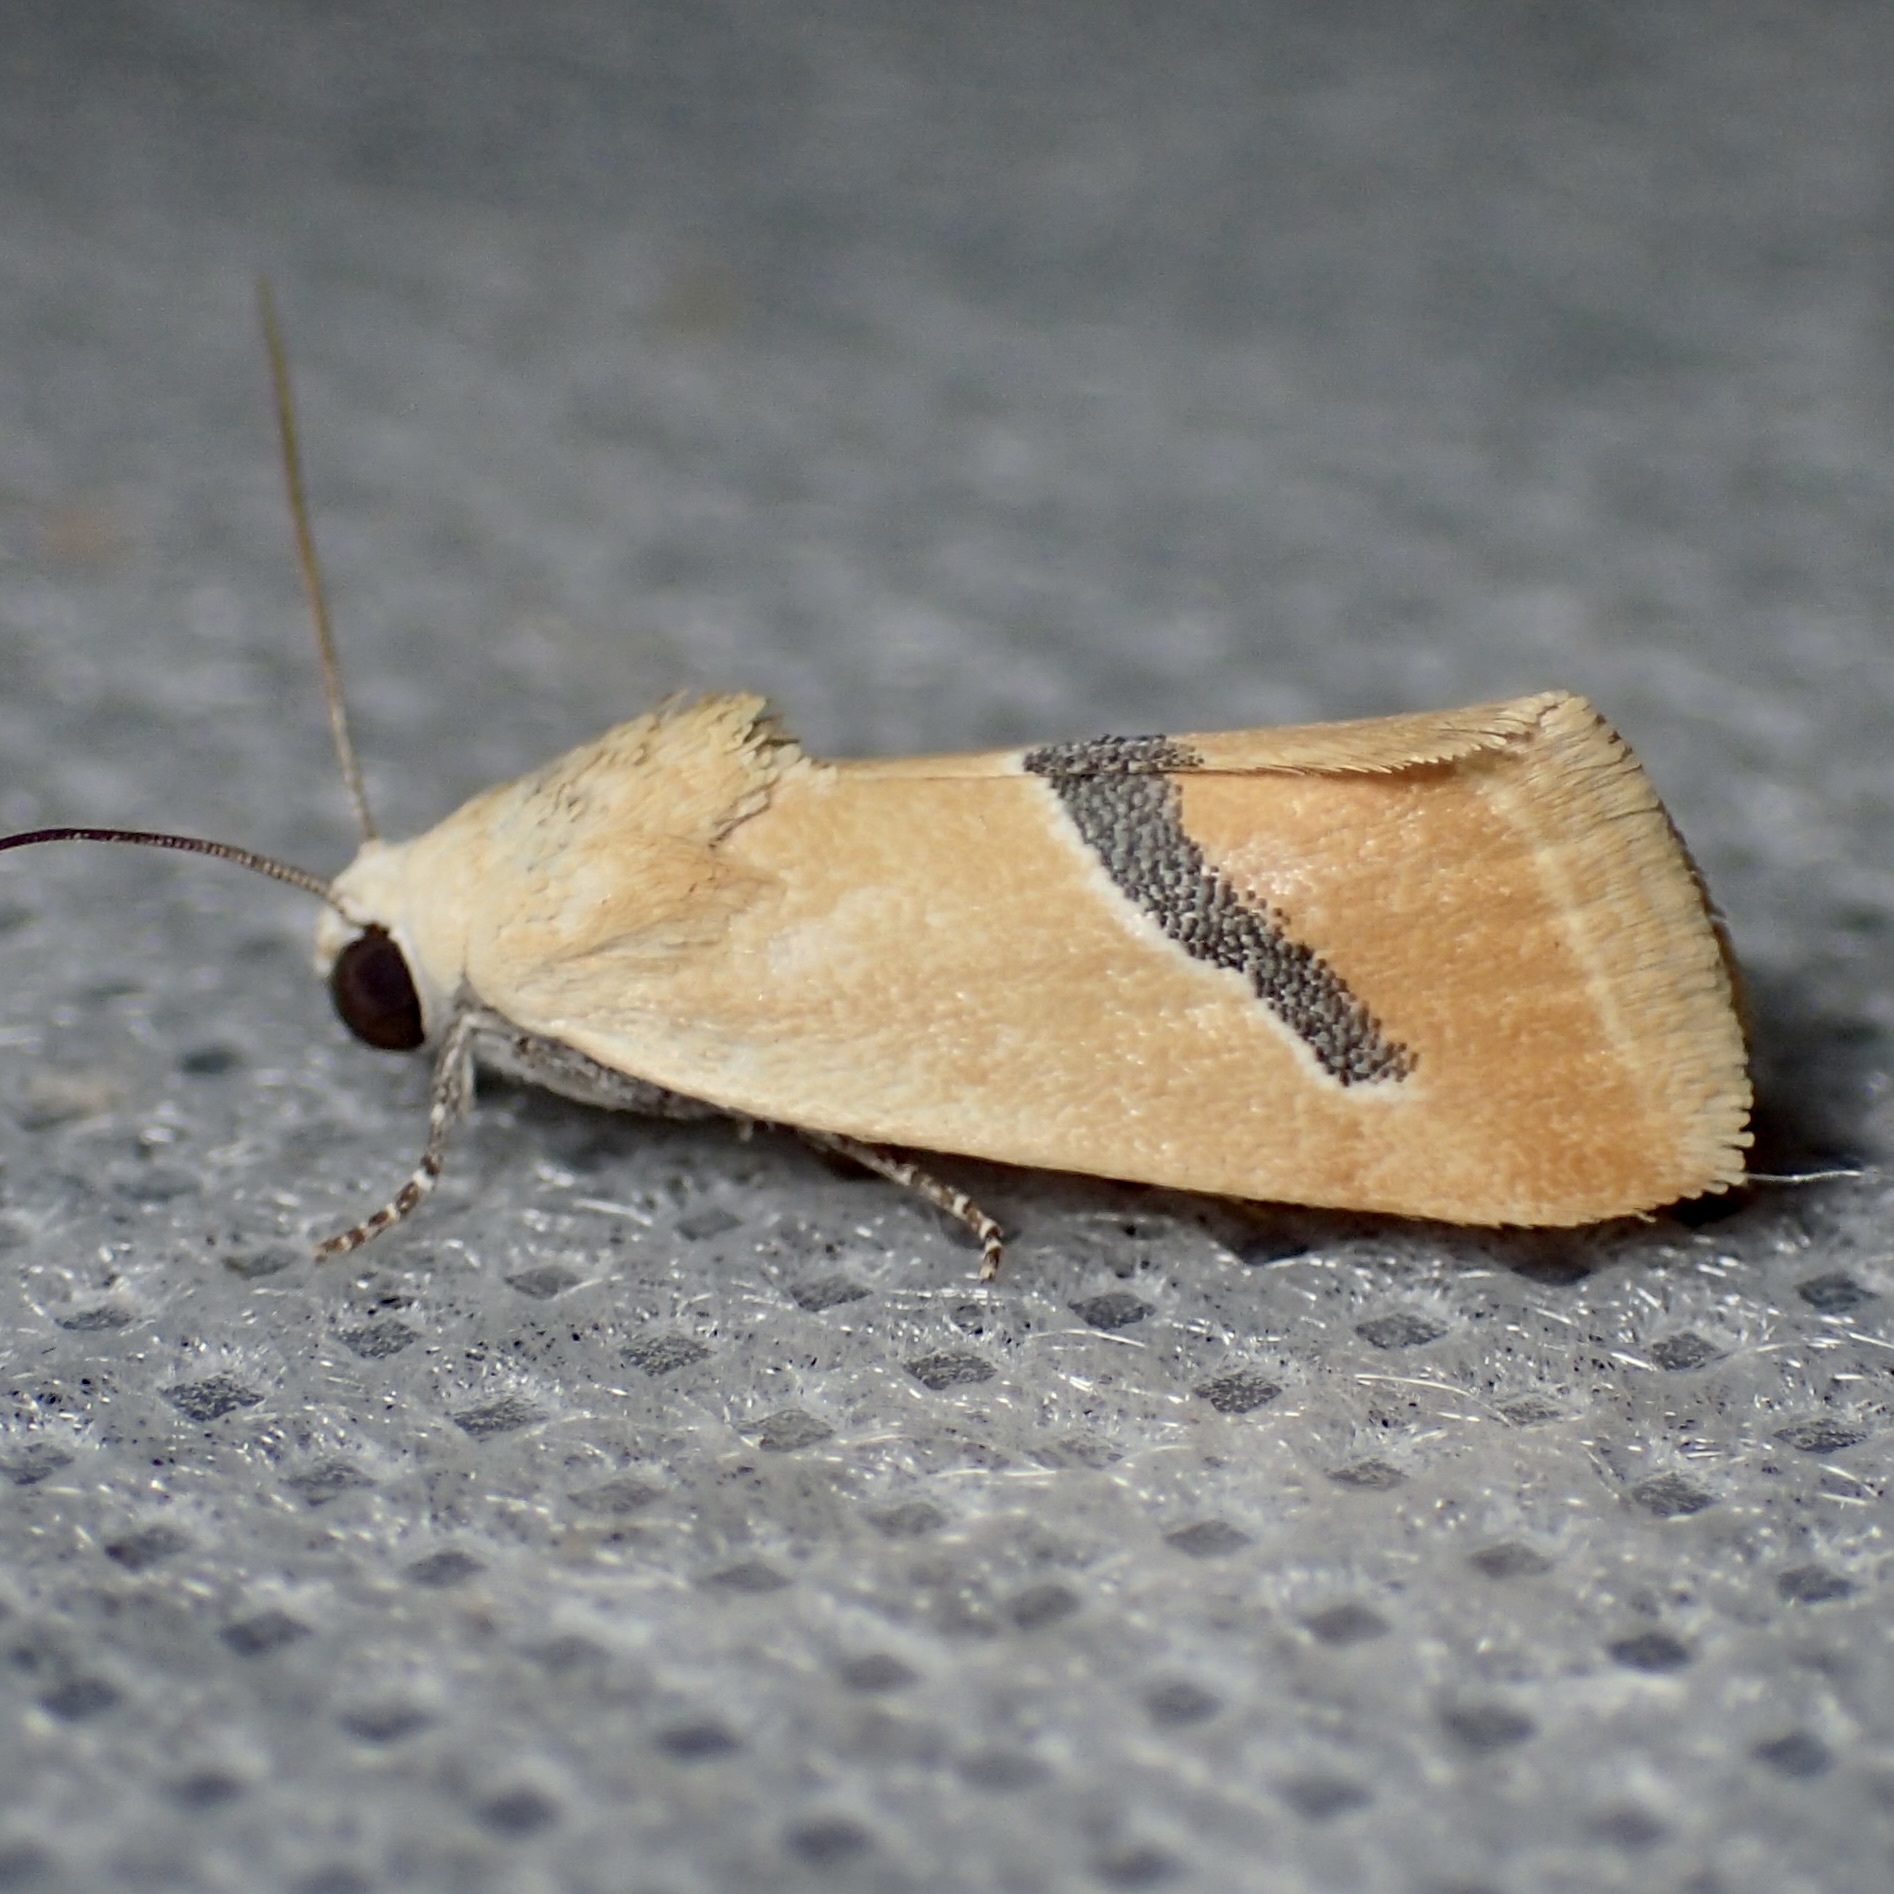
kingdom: Animalia
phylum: Arthropoda
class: Insecta
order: Lepidoptera
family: Noctuidae
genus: Ponometia
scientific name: Ponometia venustula
